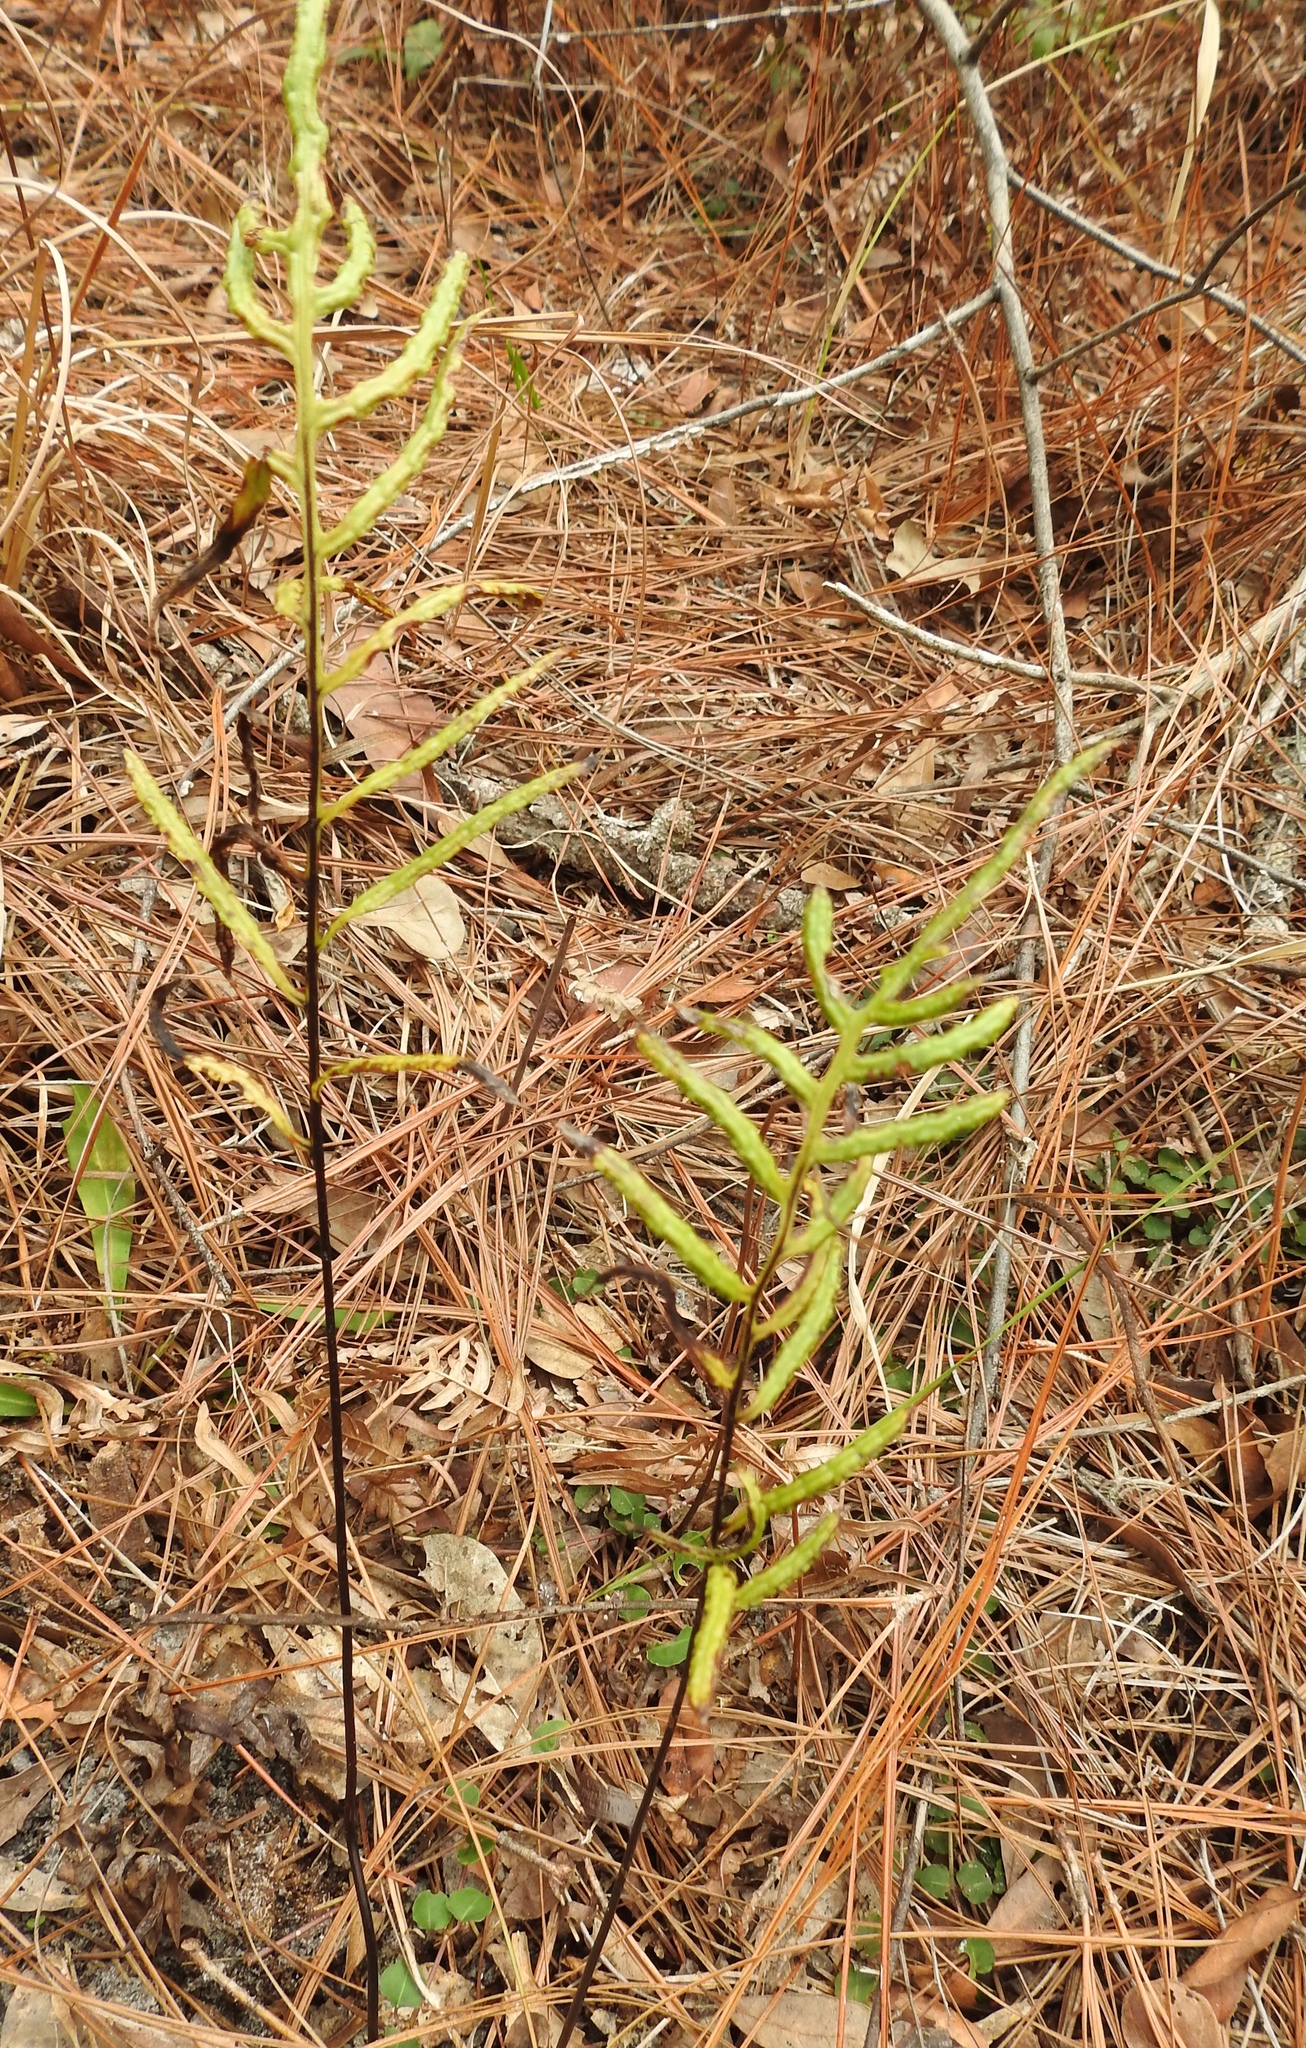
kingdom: Plantae
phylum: Tracheophyta
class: Polypodiopsida
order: Polypodiales
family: Blechnaceae
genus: Lorinseria
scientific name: Lorinseria areolata
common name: Dwarf chain fern
